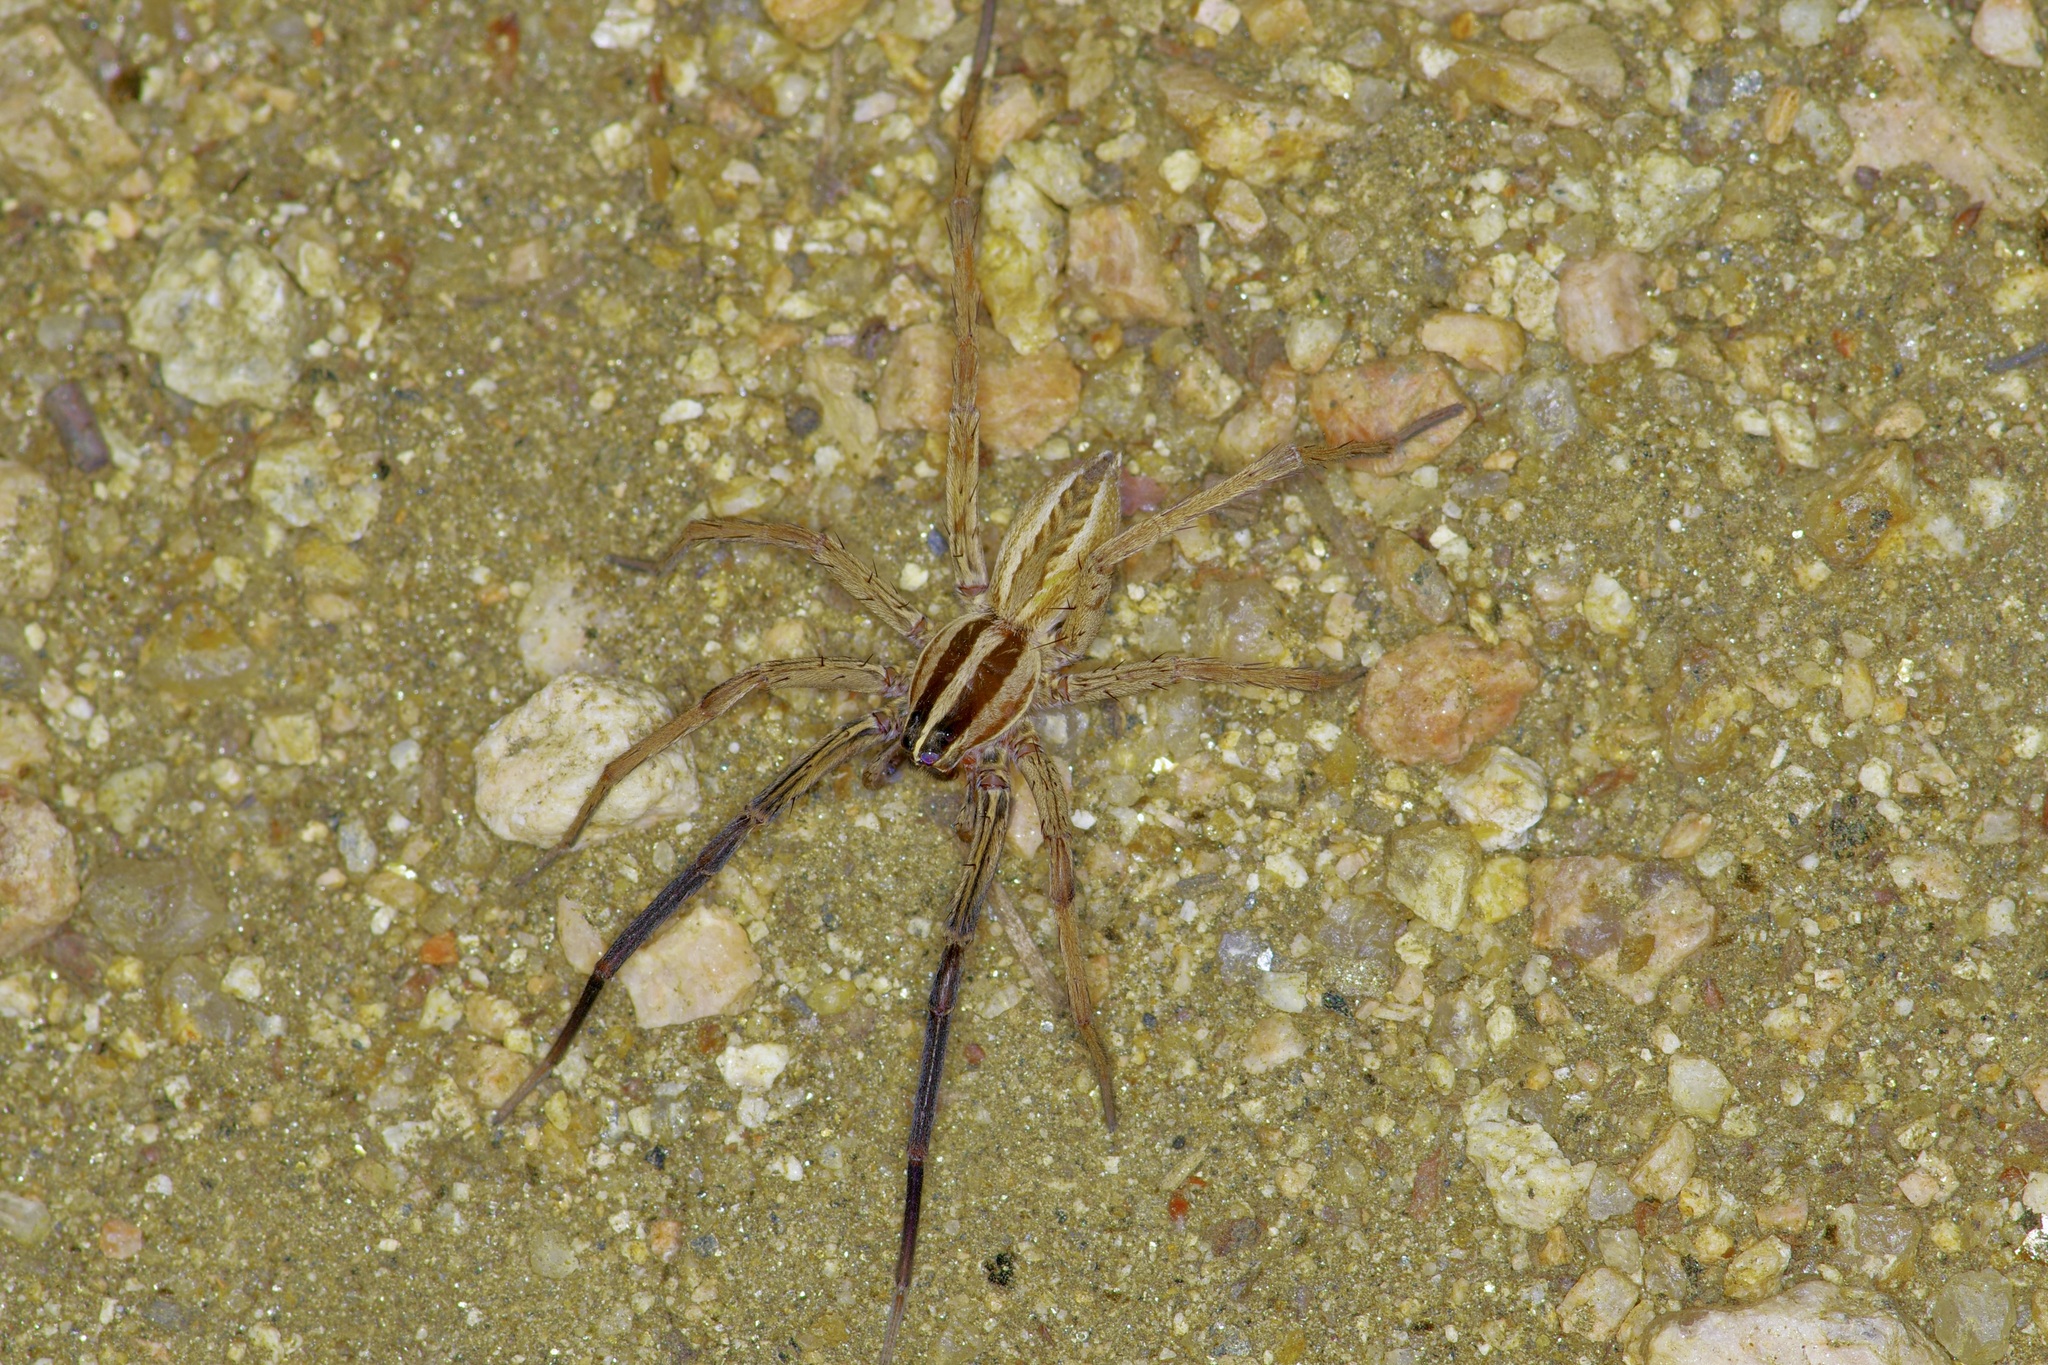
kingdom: Animalia
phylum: Arthropoda
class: Arachnida
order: Araneae
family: Lycosidae
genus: Rabidosa
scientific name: Rabidosa rabida
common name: Rabid wolf spider
